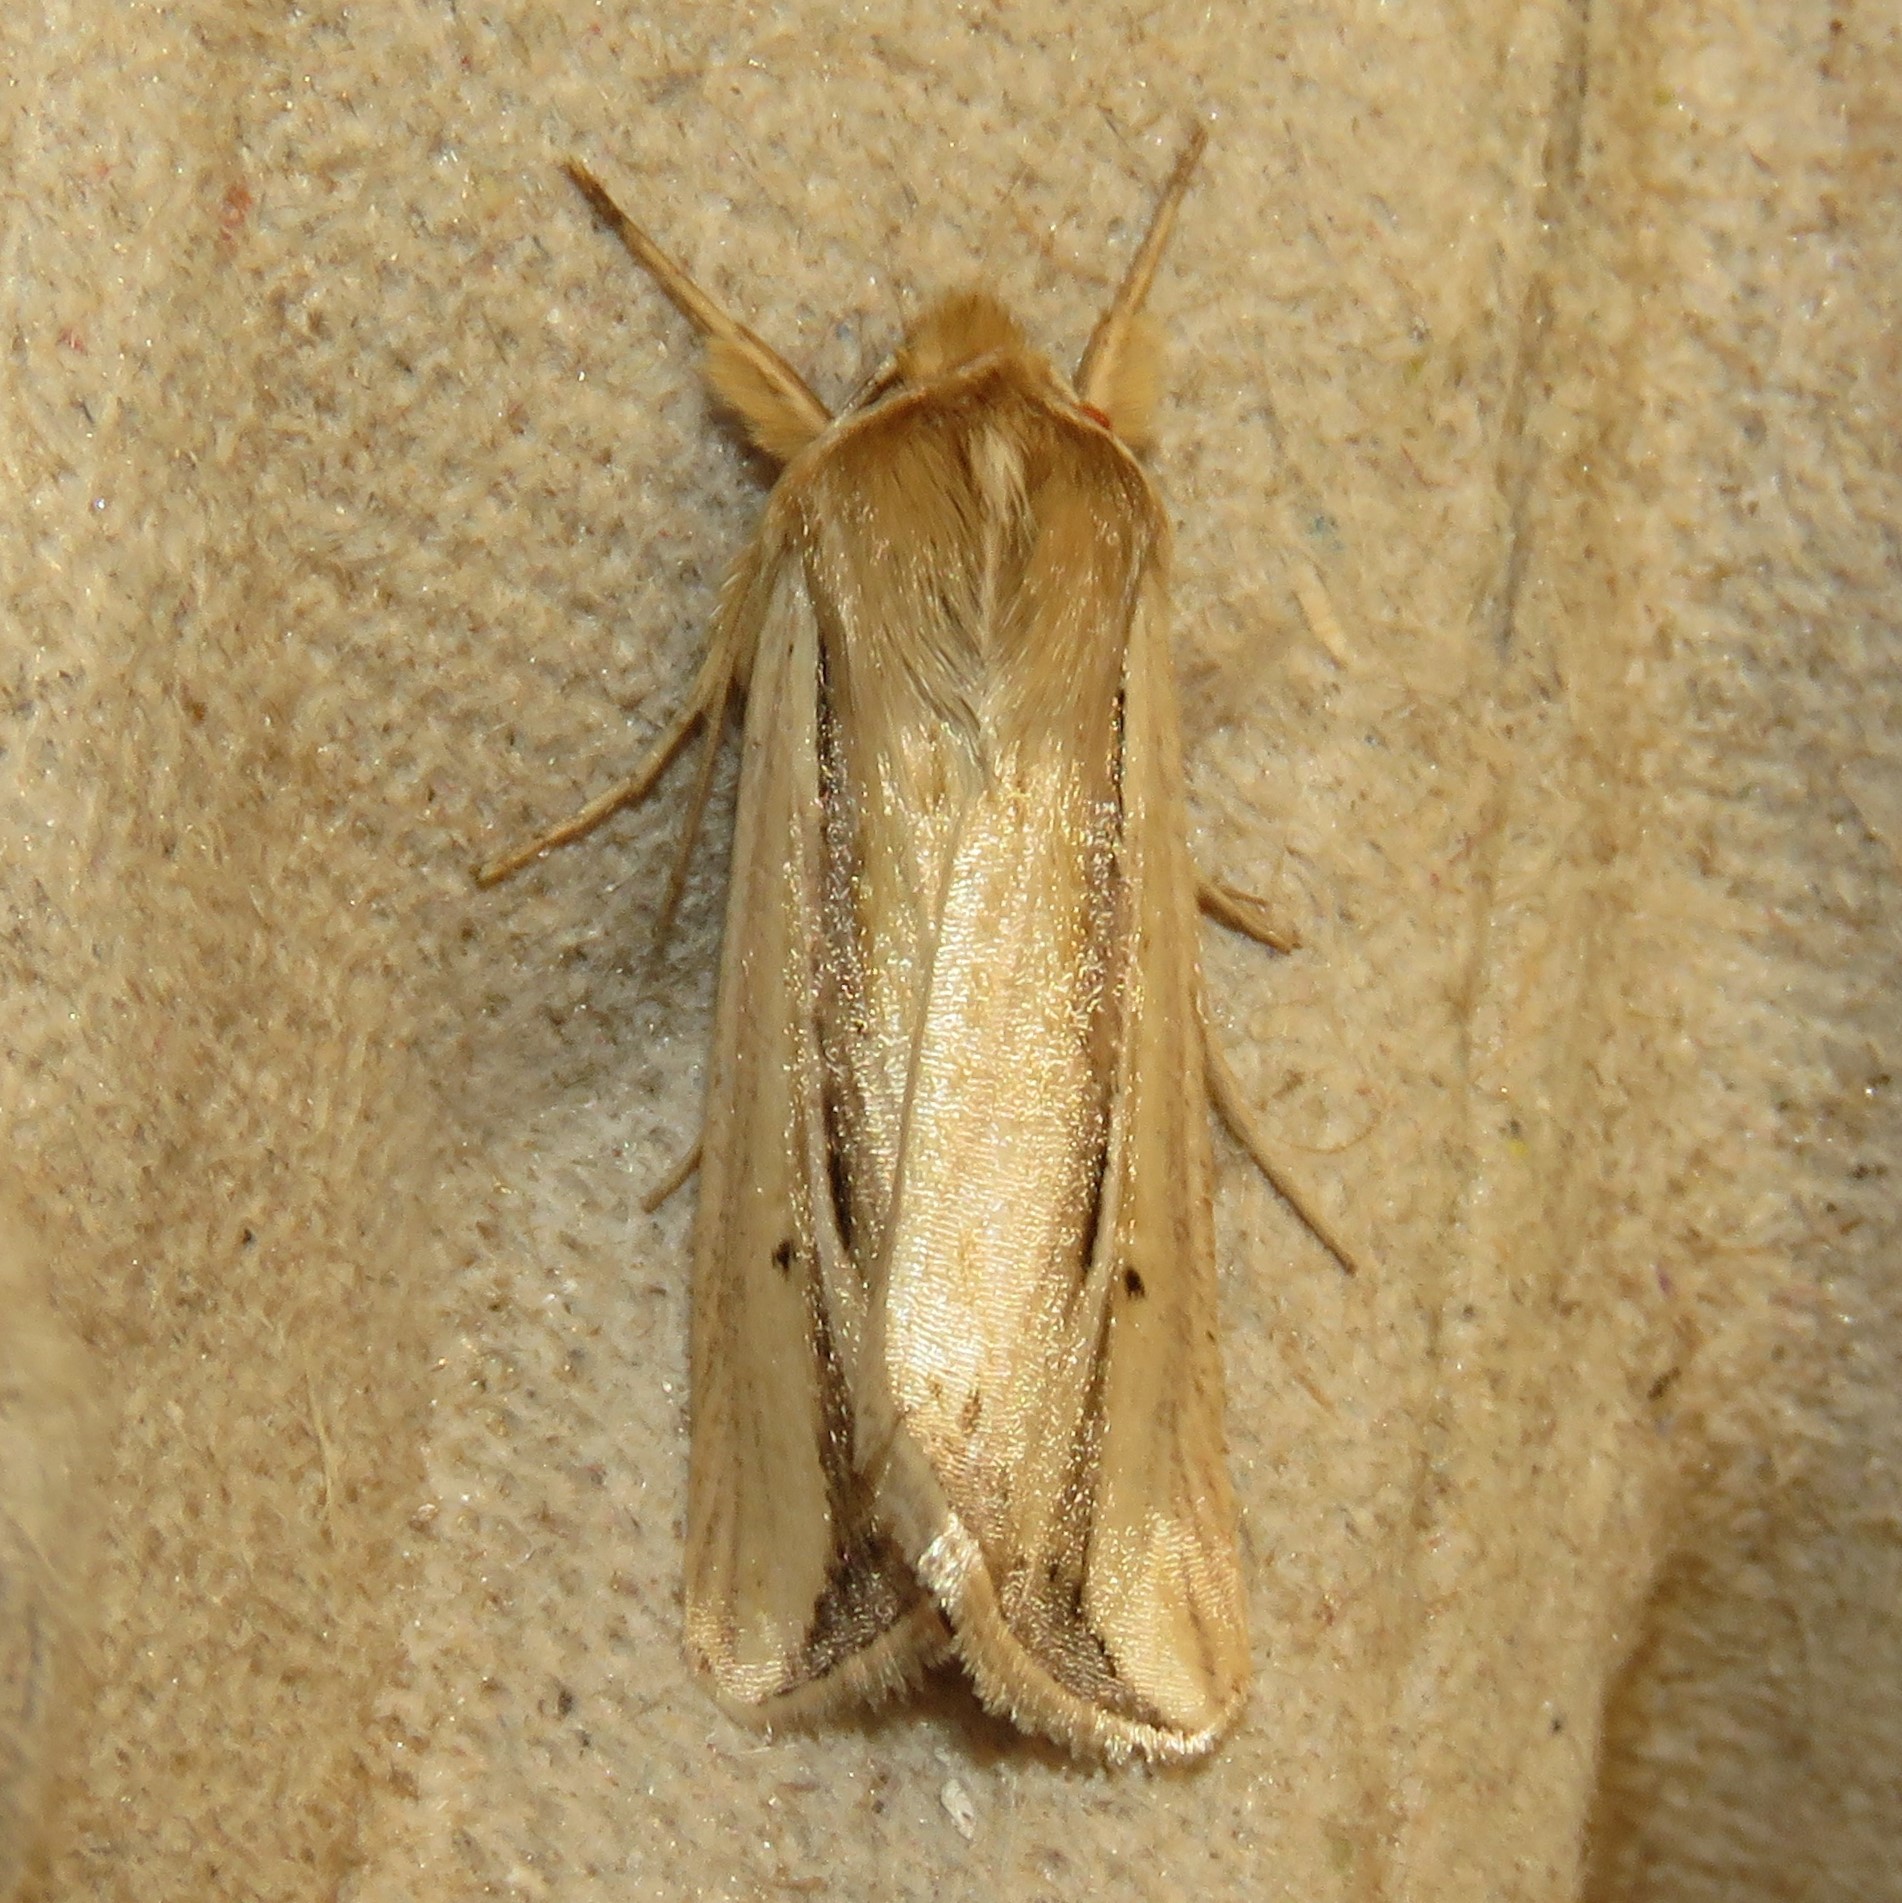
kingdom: Animalia
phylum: Arthropoda
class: Insecta
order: Lepidoptera
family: Noctuidae
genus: Dargida
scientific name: Dargida diffusa
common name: Wheat head armyworm
